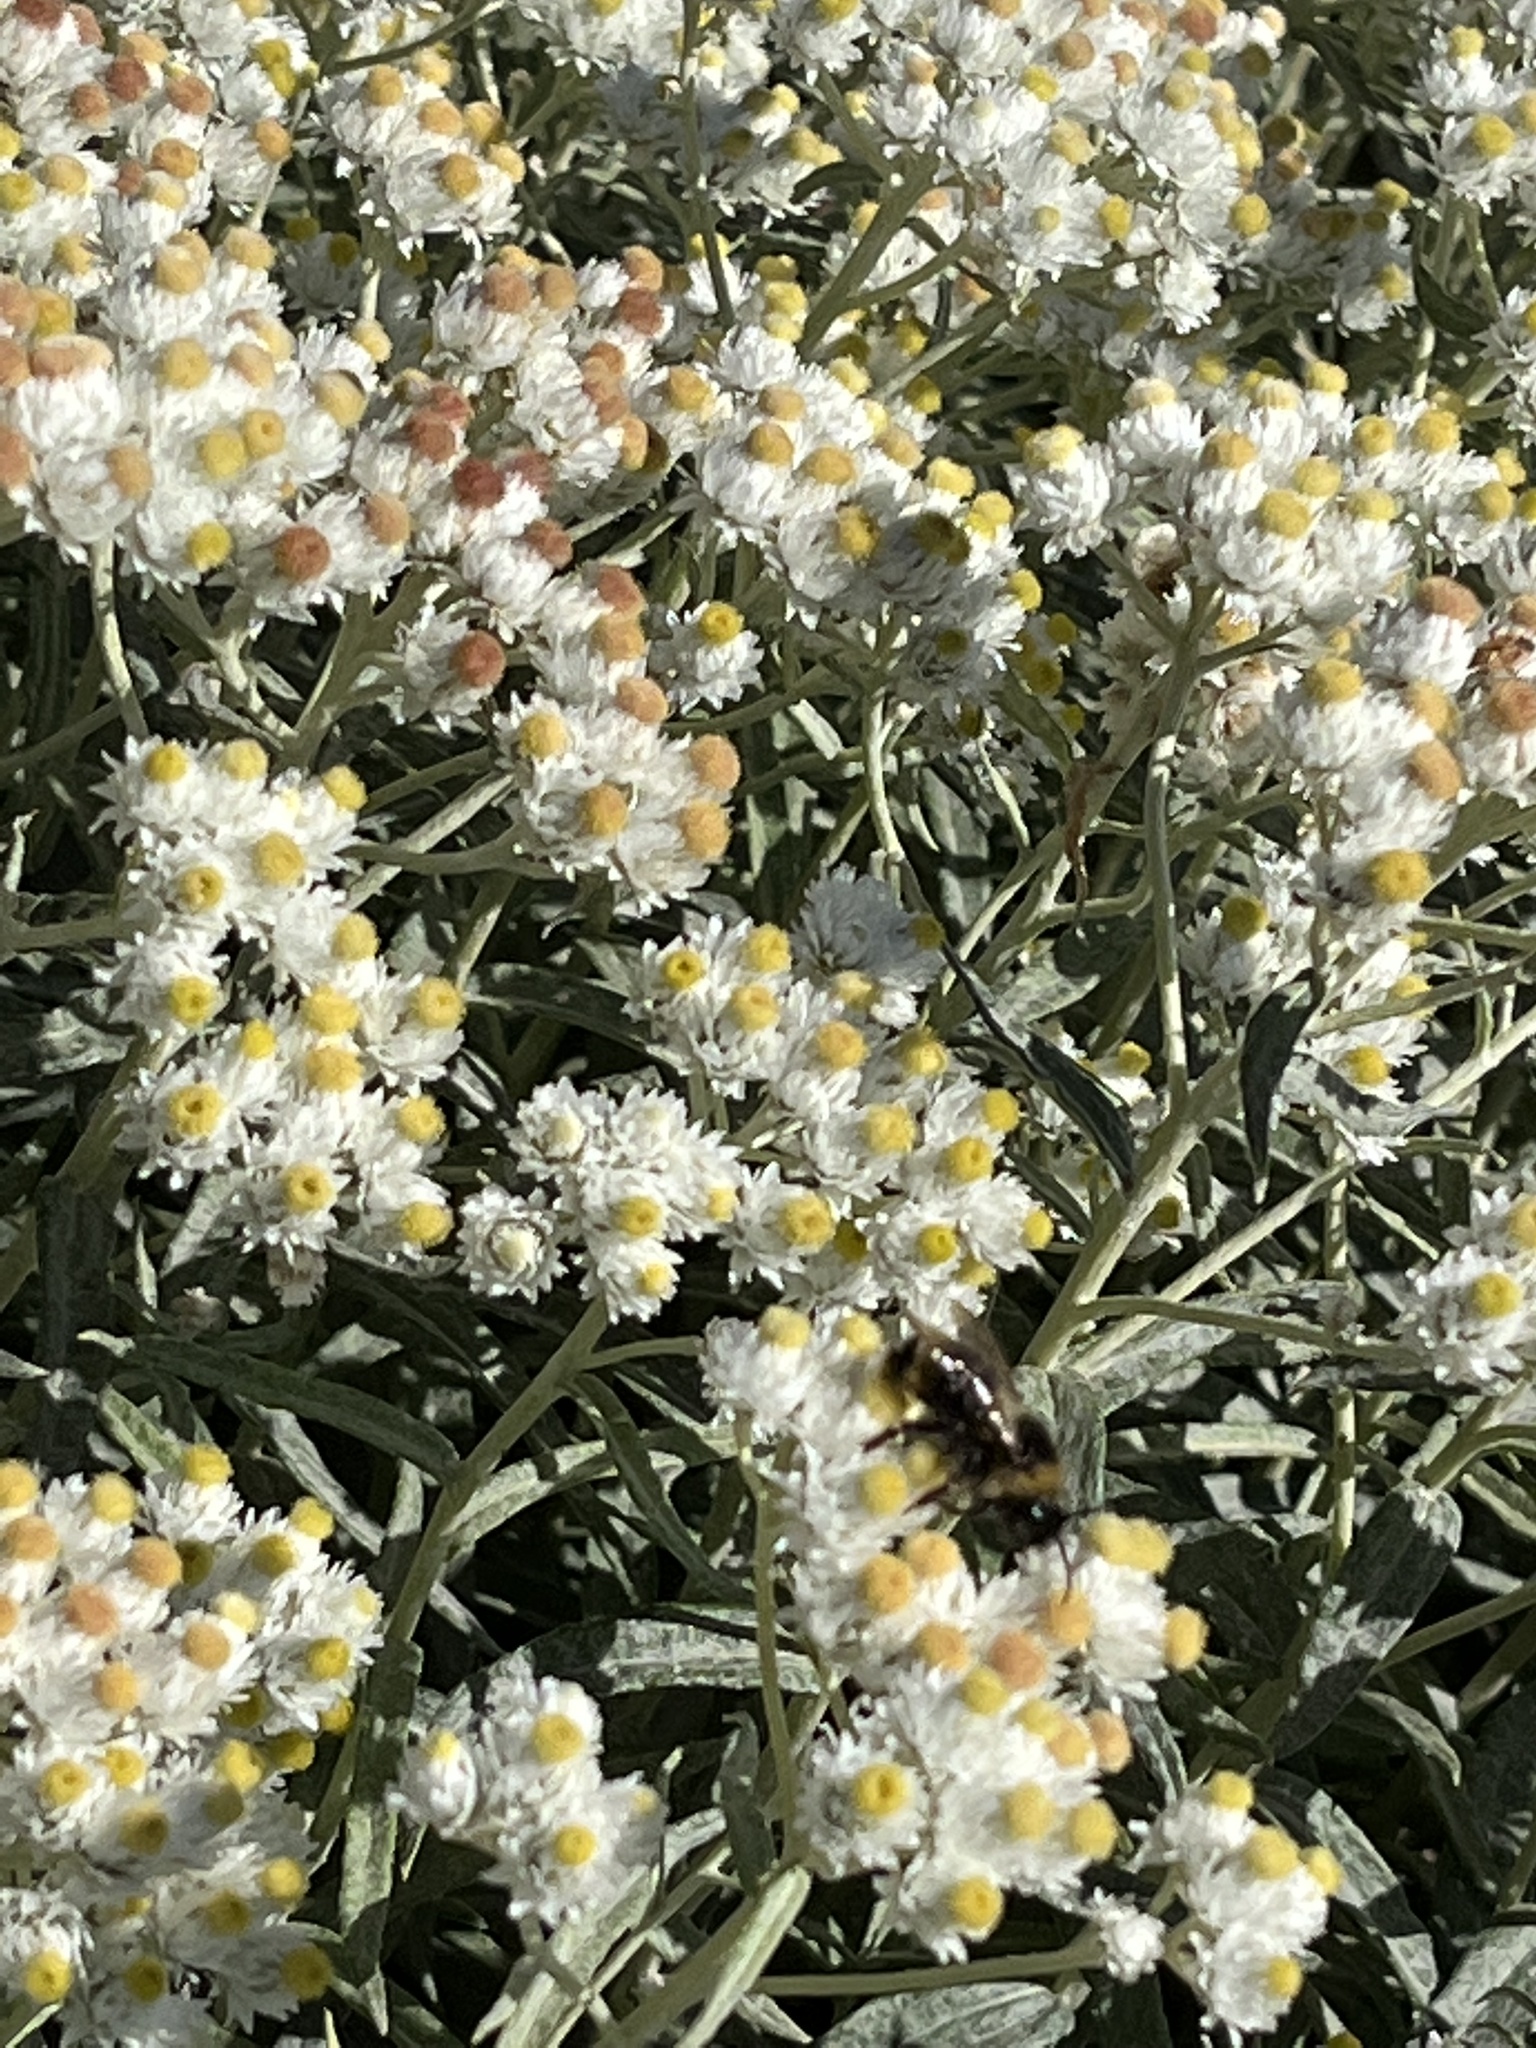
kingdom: Plantae
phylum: Tracheophyta
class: Magnoliopsida
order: Asterales
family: Asteraceae
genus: Anaphalis
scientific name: Anaphalis margaritacea
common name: Pearly everlasting
